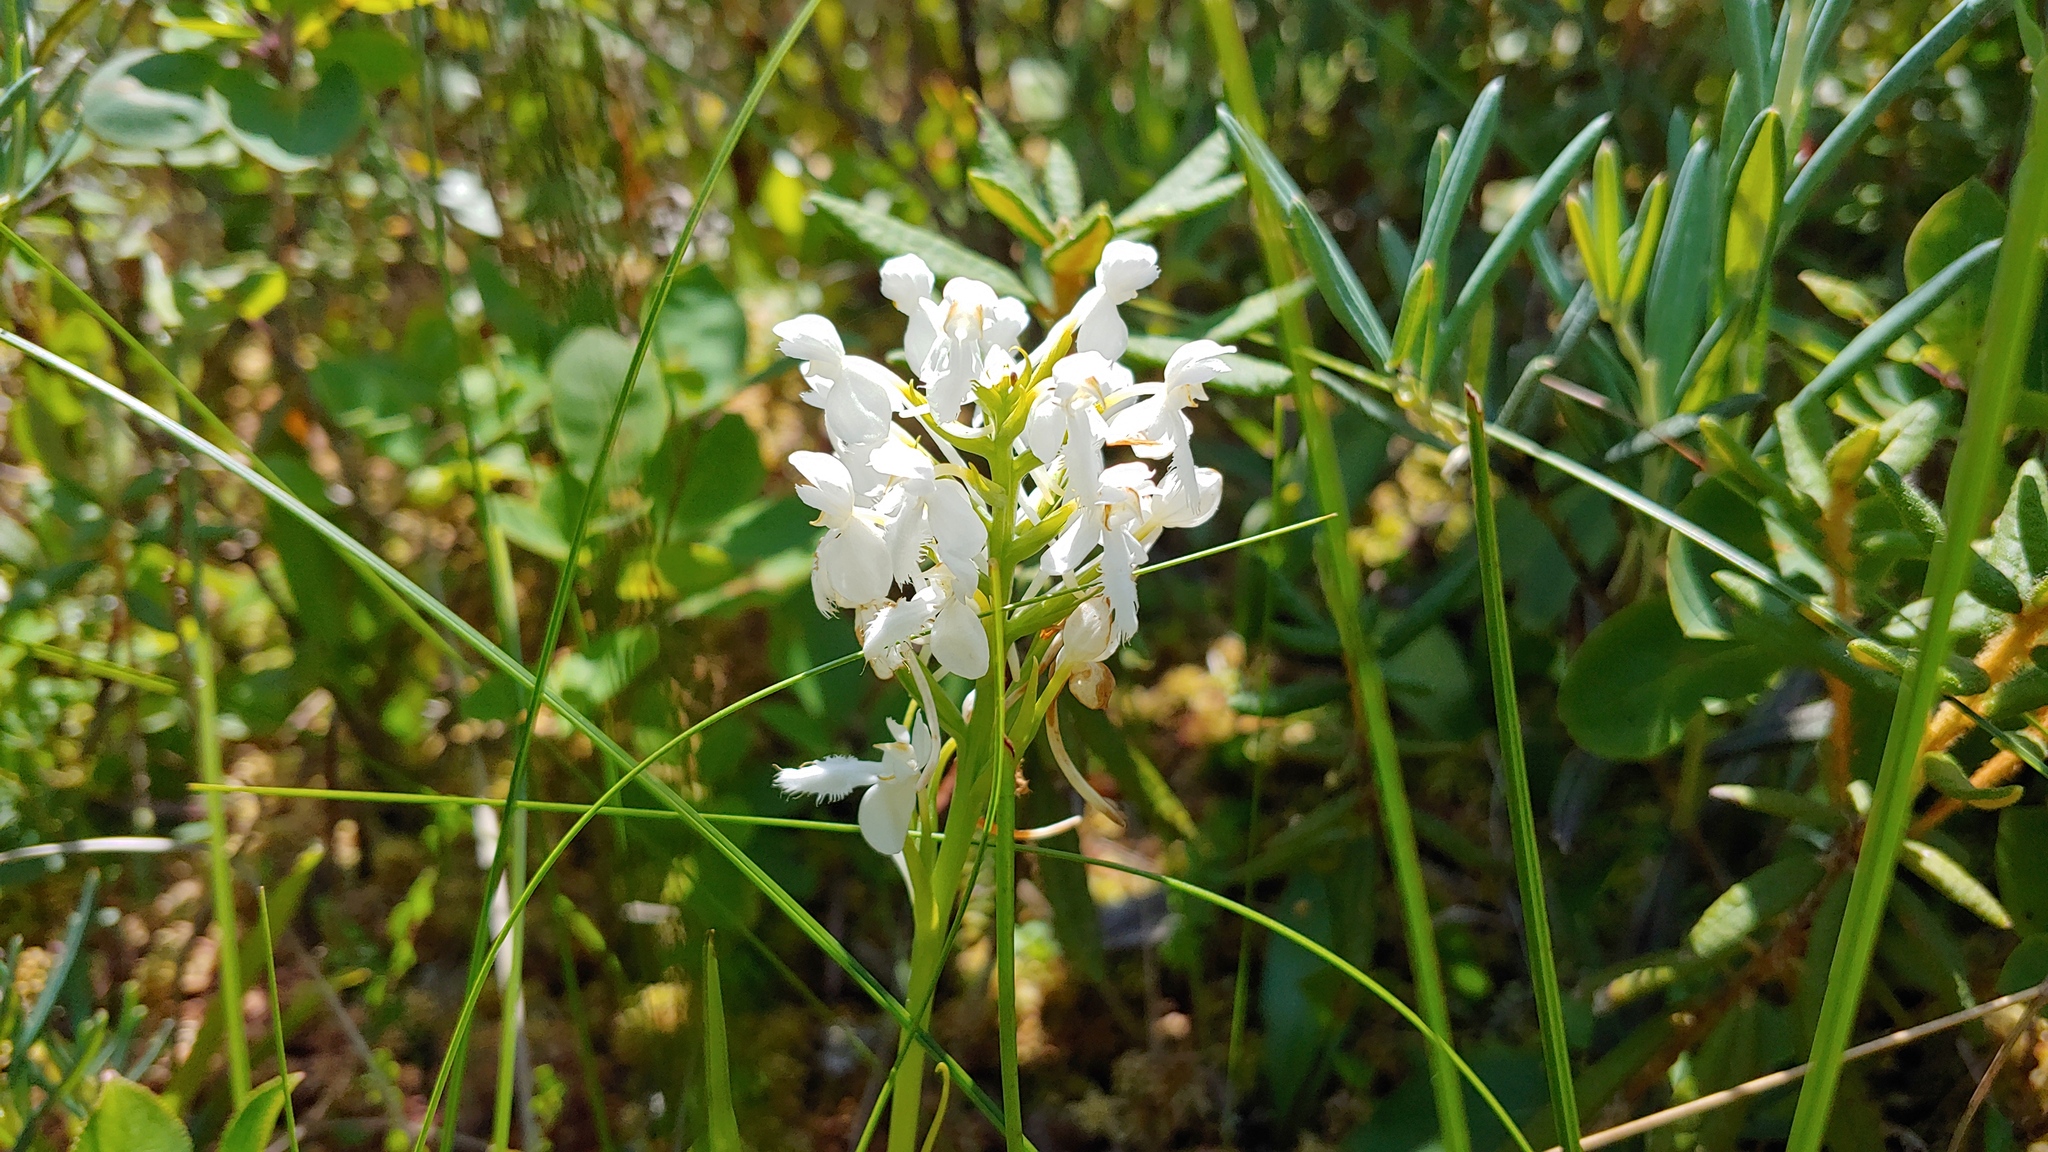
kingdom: Plantae
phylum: Tracheophyta
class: Liliopsida
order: Asparagales
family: Orchidaceae
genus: Platanthera
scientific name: Platanthera blephariglottis
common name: White fringed orchid
